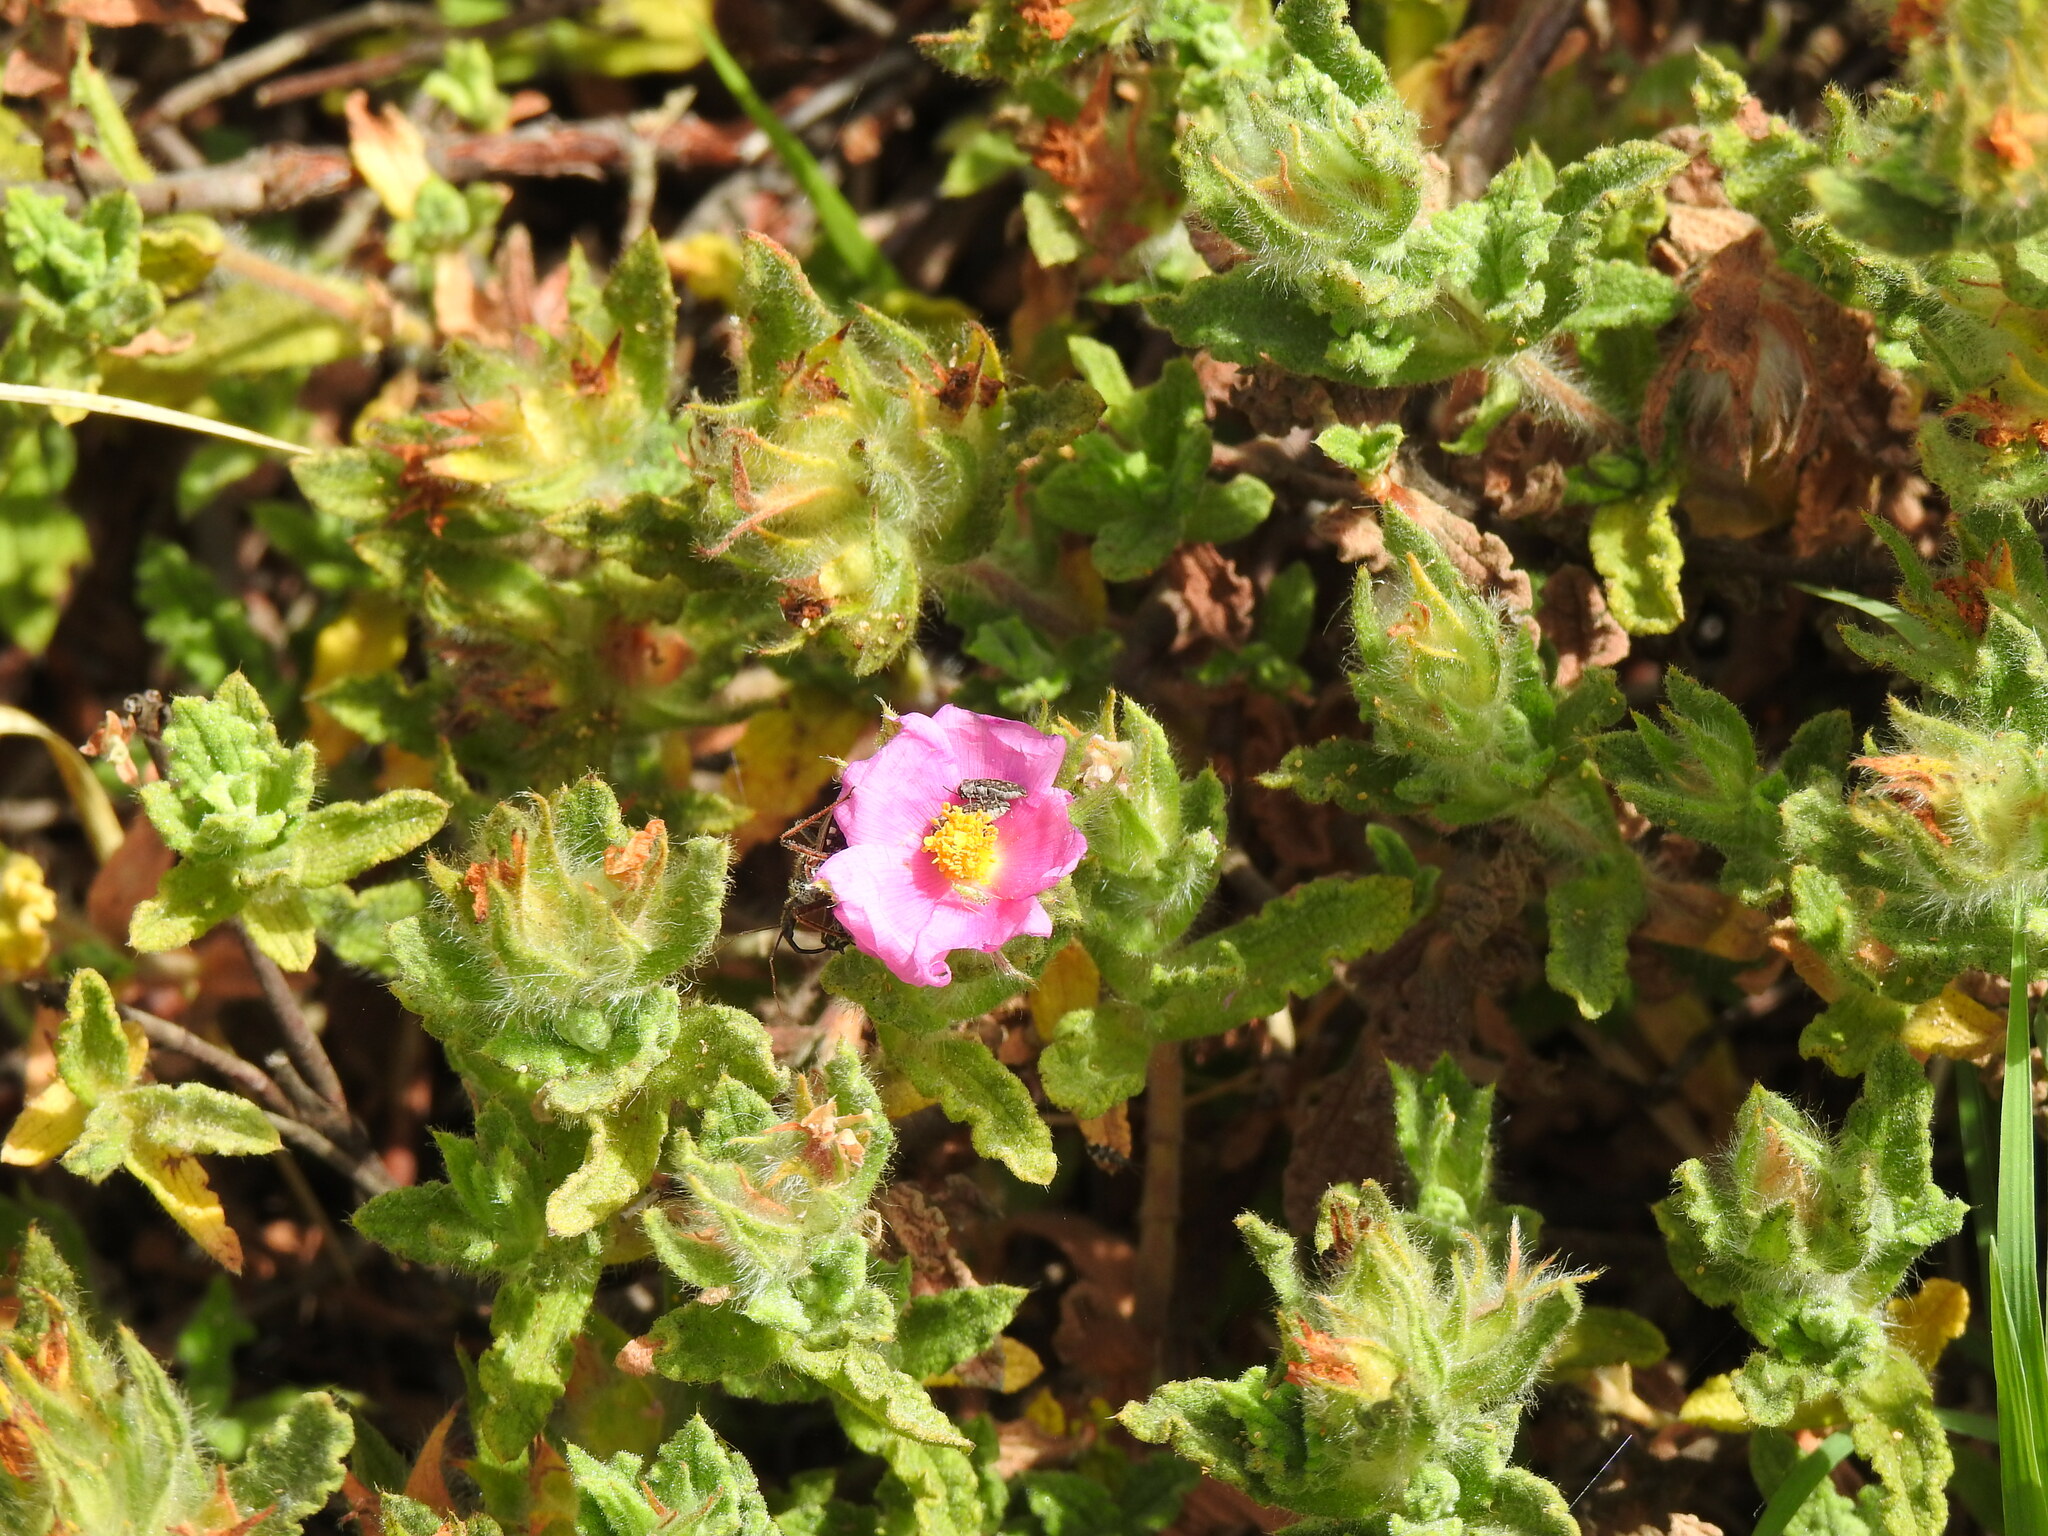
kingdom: Plantae
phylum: Tracheophyta
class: Magnoliopsida
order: Malvales
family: Cistaceae
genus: Cistus
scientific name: Cistus crispus
